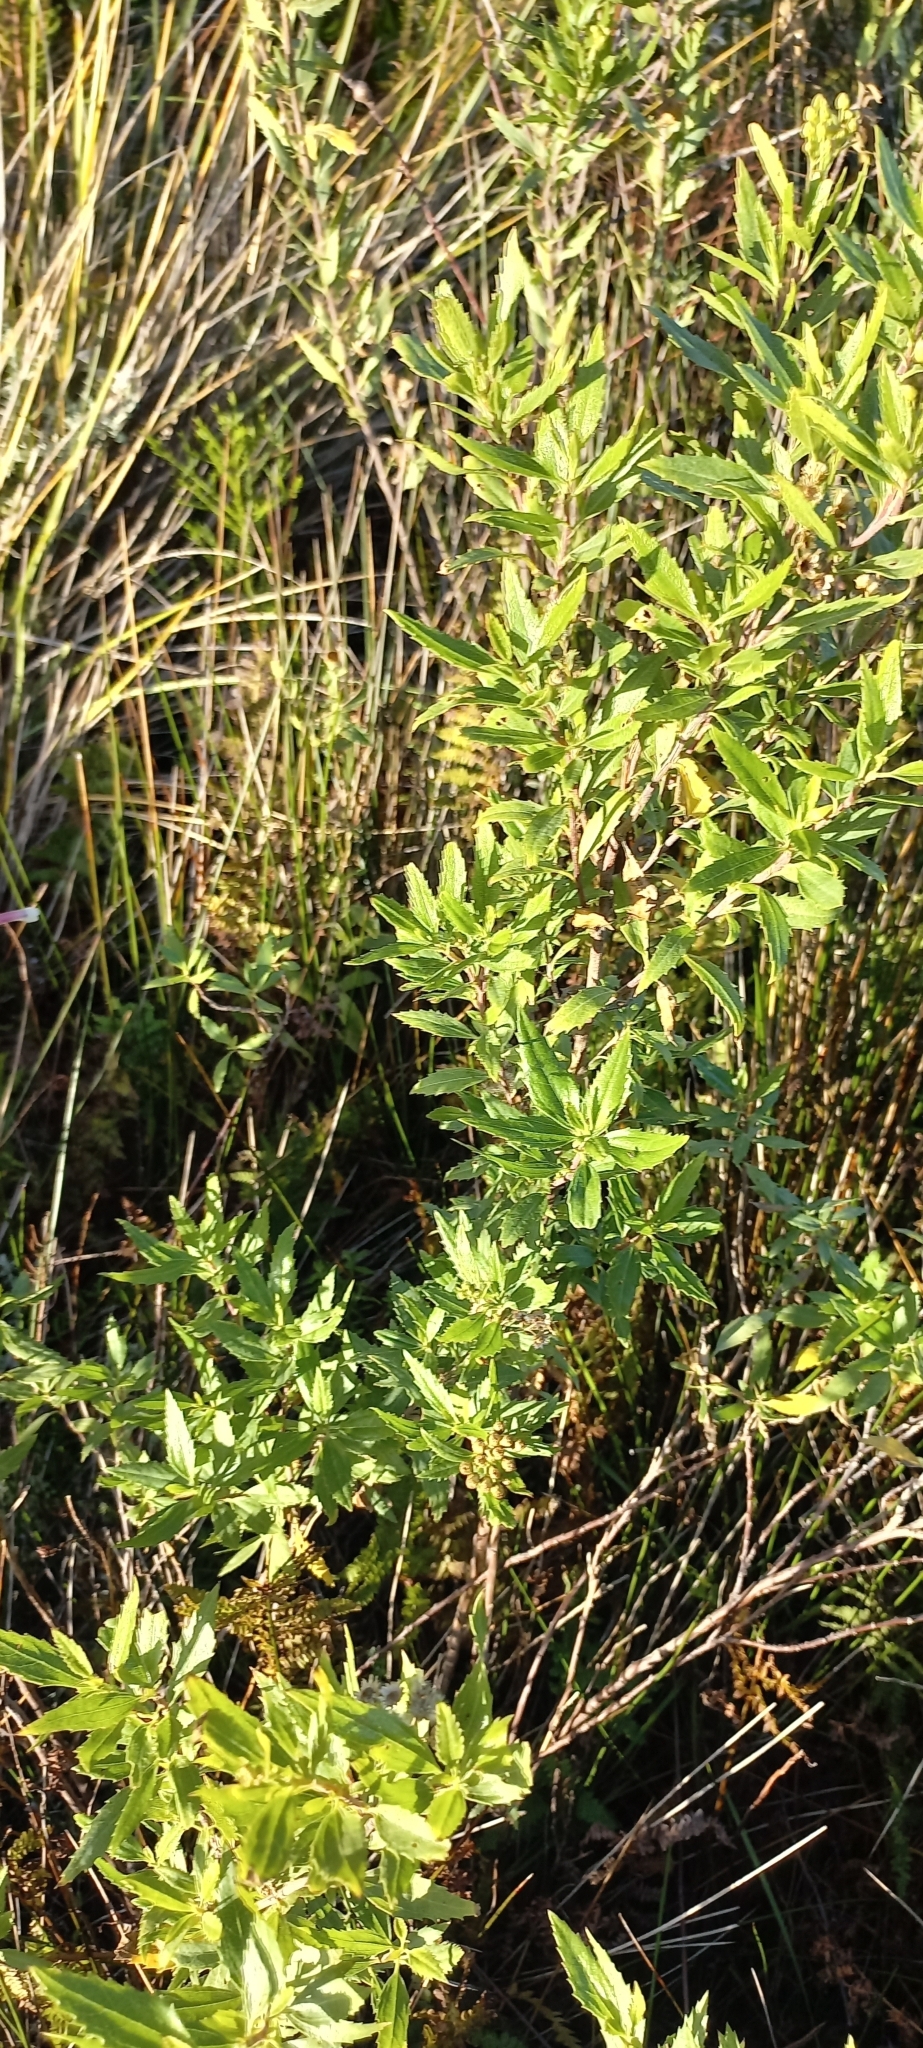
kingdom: Plantae
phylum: Tracheophyta
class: Magnoliopsida
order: Fagales
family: Myricaceae
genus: Morella
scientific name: Morella serrata
